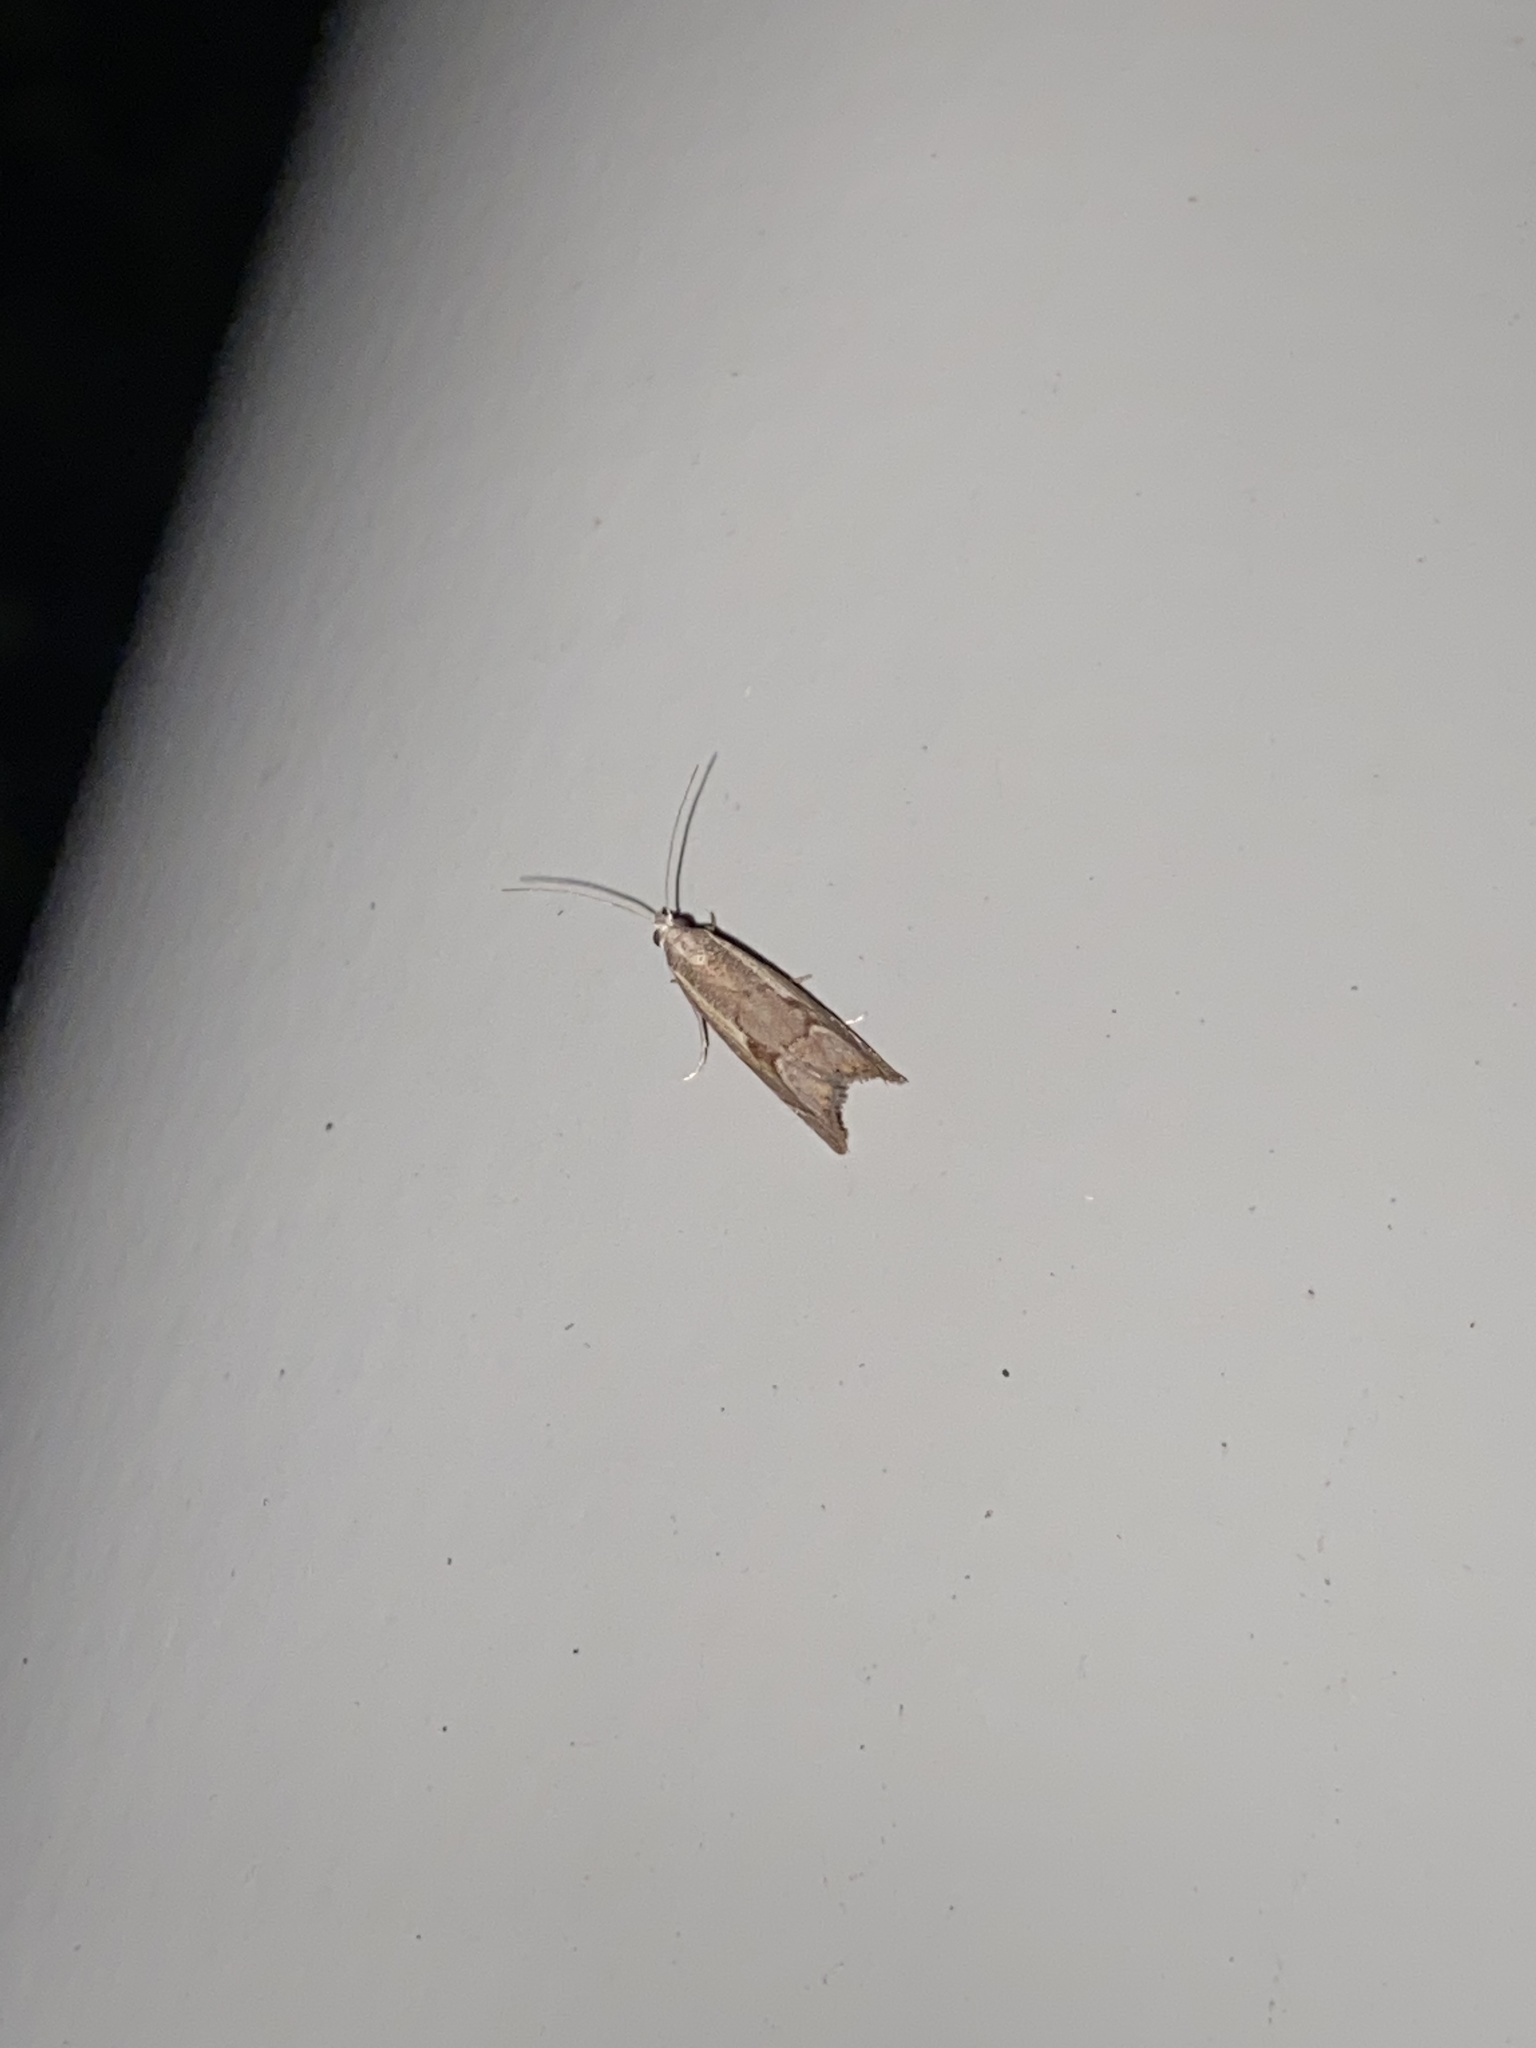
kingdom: Animalia
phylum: Arthropoda
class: Insecta
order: Lepidoptera
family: Crambidae
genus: Agriphila
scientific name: Agriphila geniculea
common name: Elbow-stripe grass-veneer
